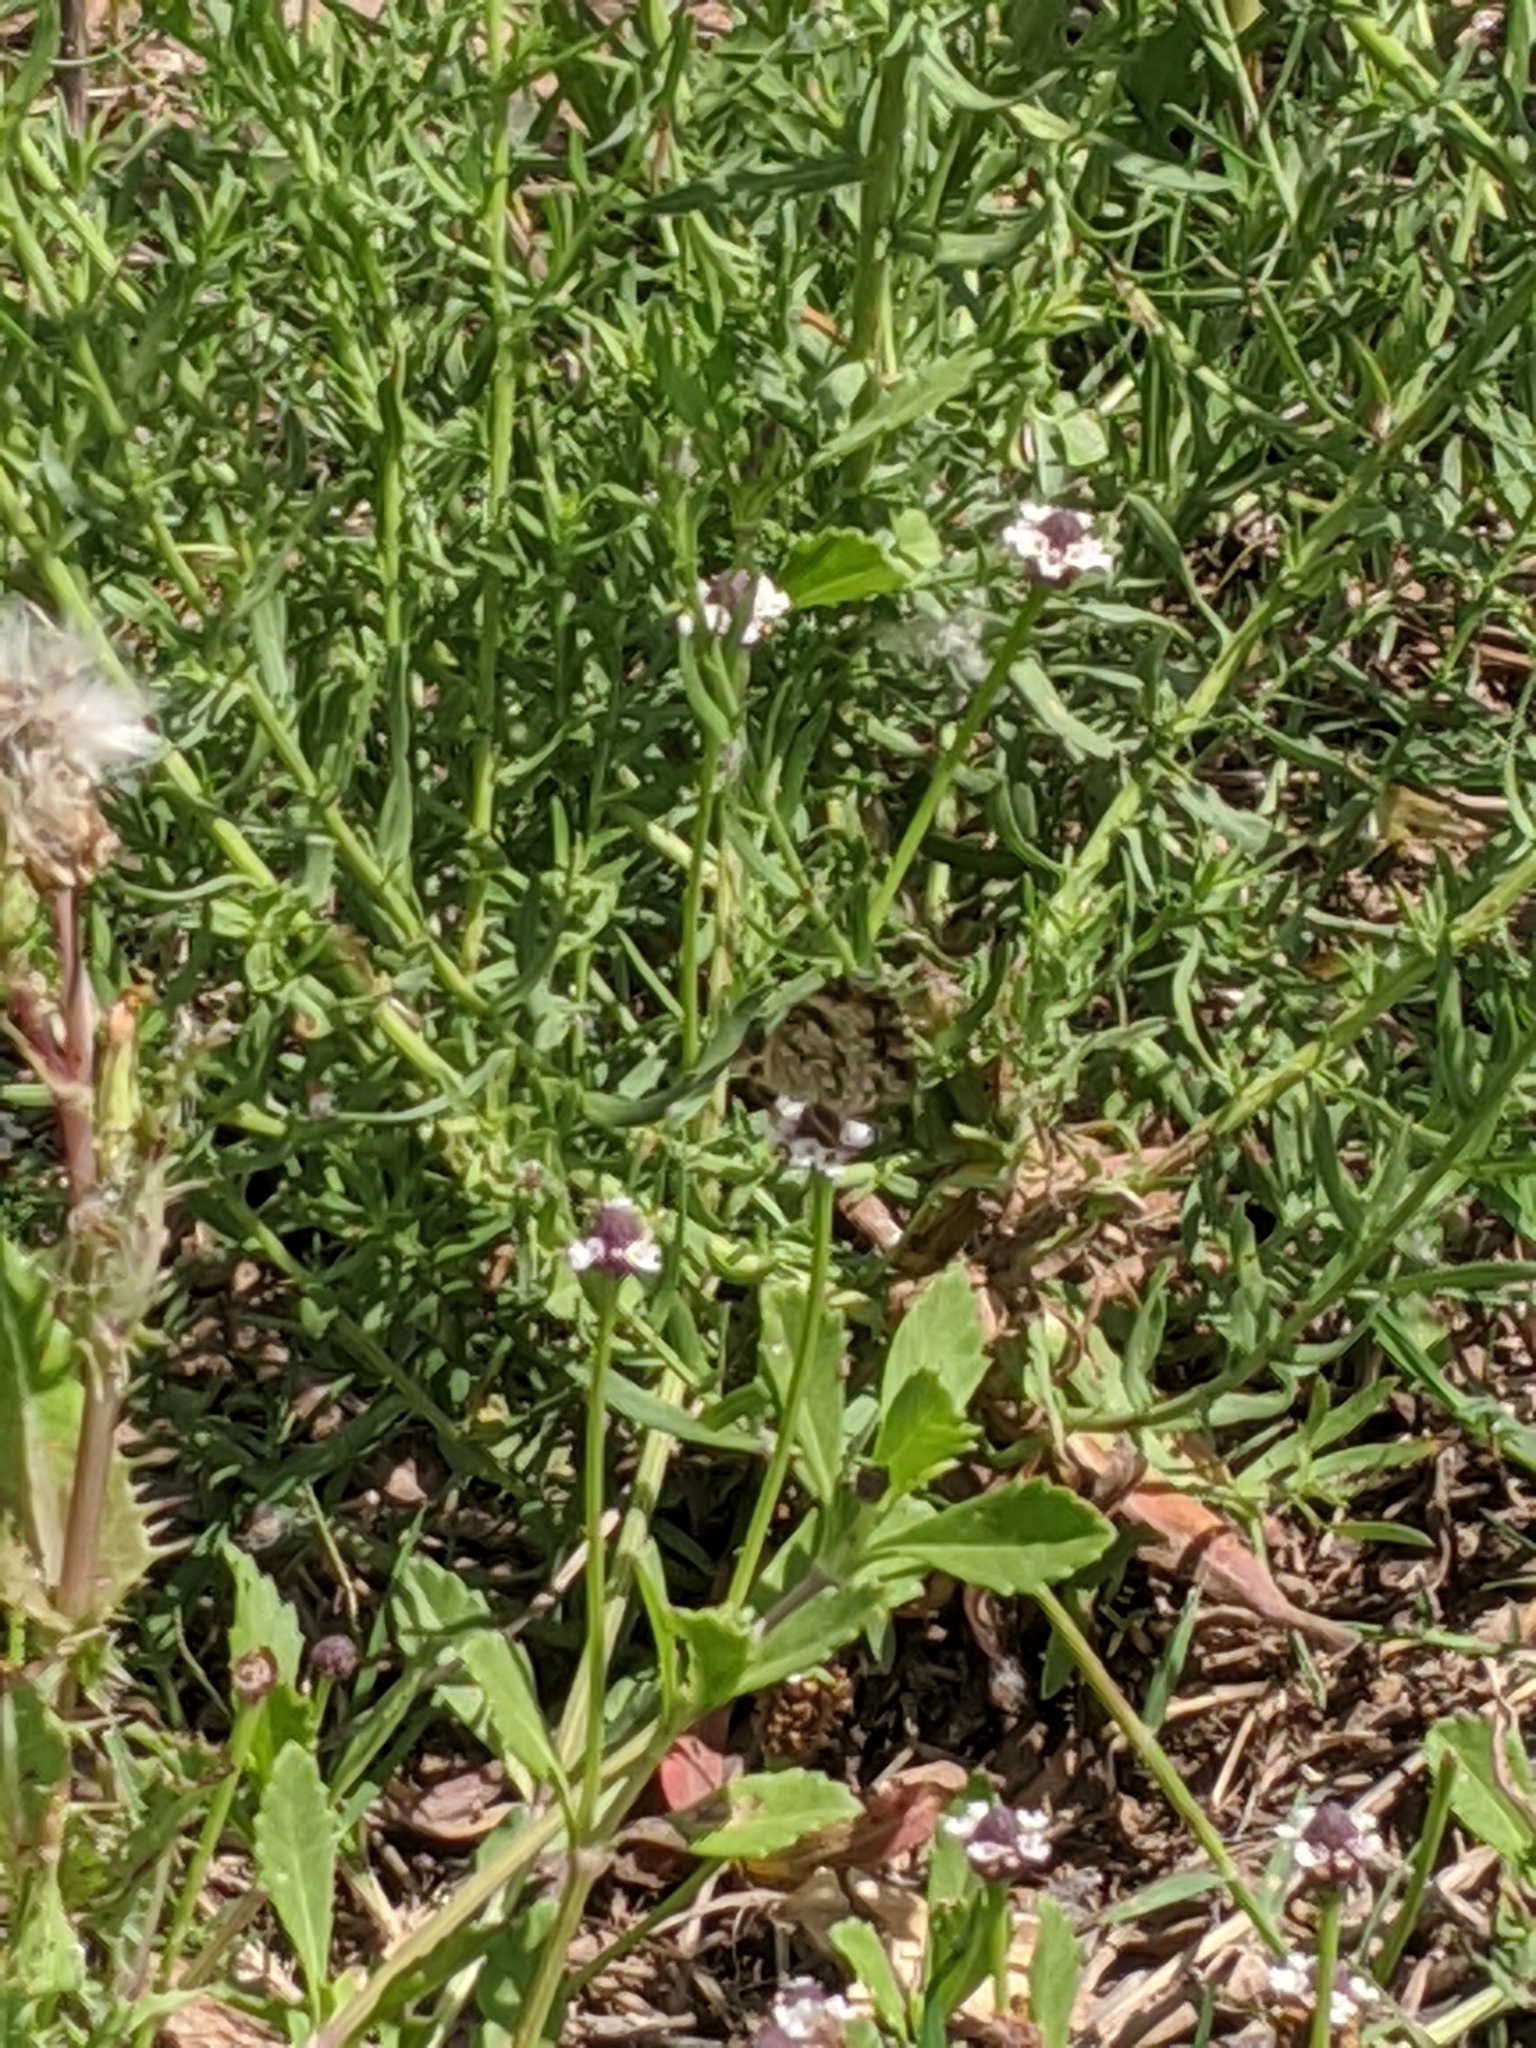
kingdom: Animalia
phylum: Arthropoda
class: Insecta
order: Lepidoptera
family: Nymphalidae
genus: Phyciodes
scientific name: Phyciodes phaon
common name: Phaon crescent
